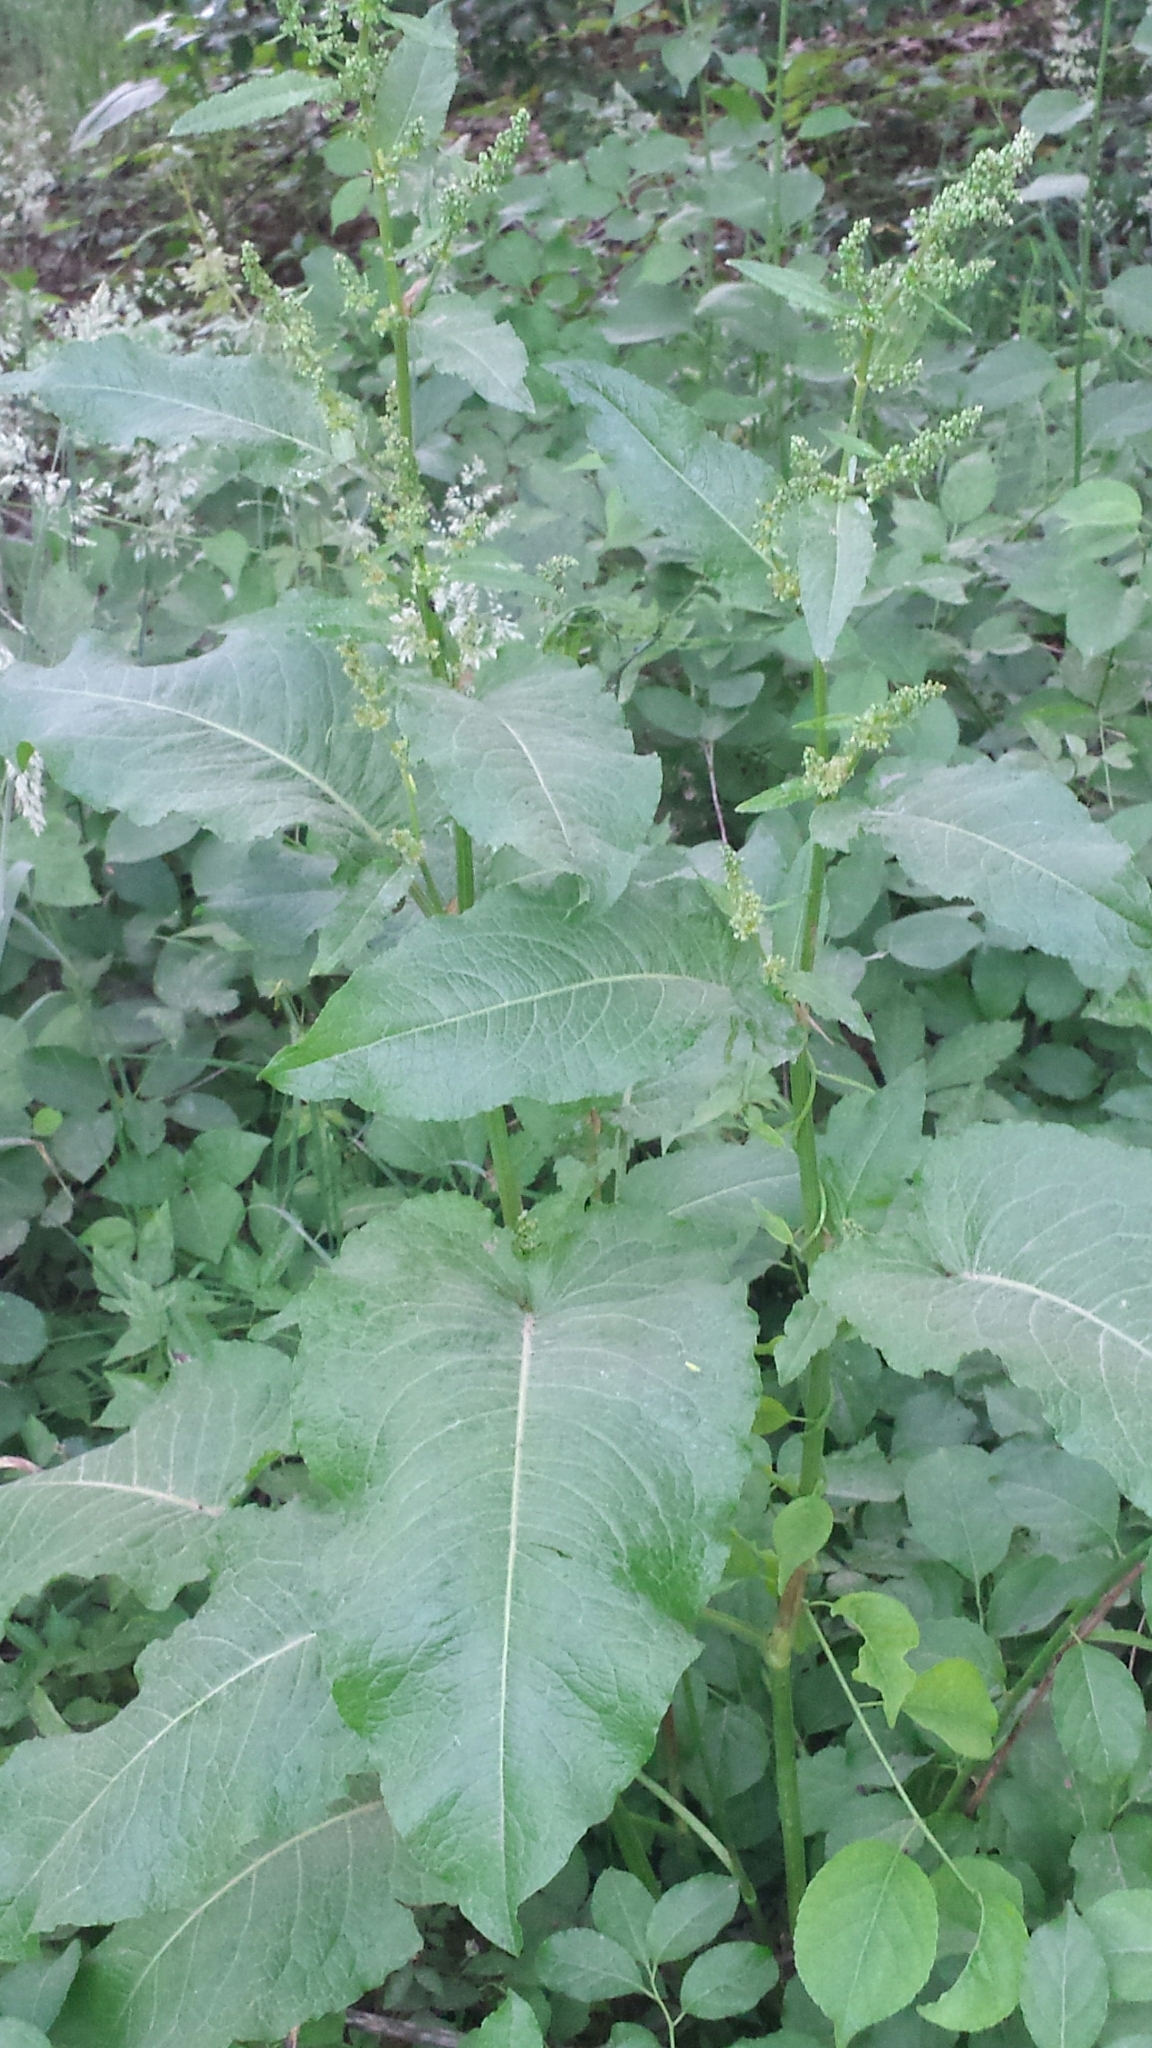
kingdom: Plantae
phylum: Tracheophyta
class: Magnoliopsida
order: Caryophyllales
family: Polygonaceae
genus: Rumex
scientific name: Rumex obtusifolius
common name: Bitter dock
